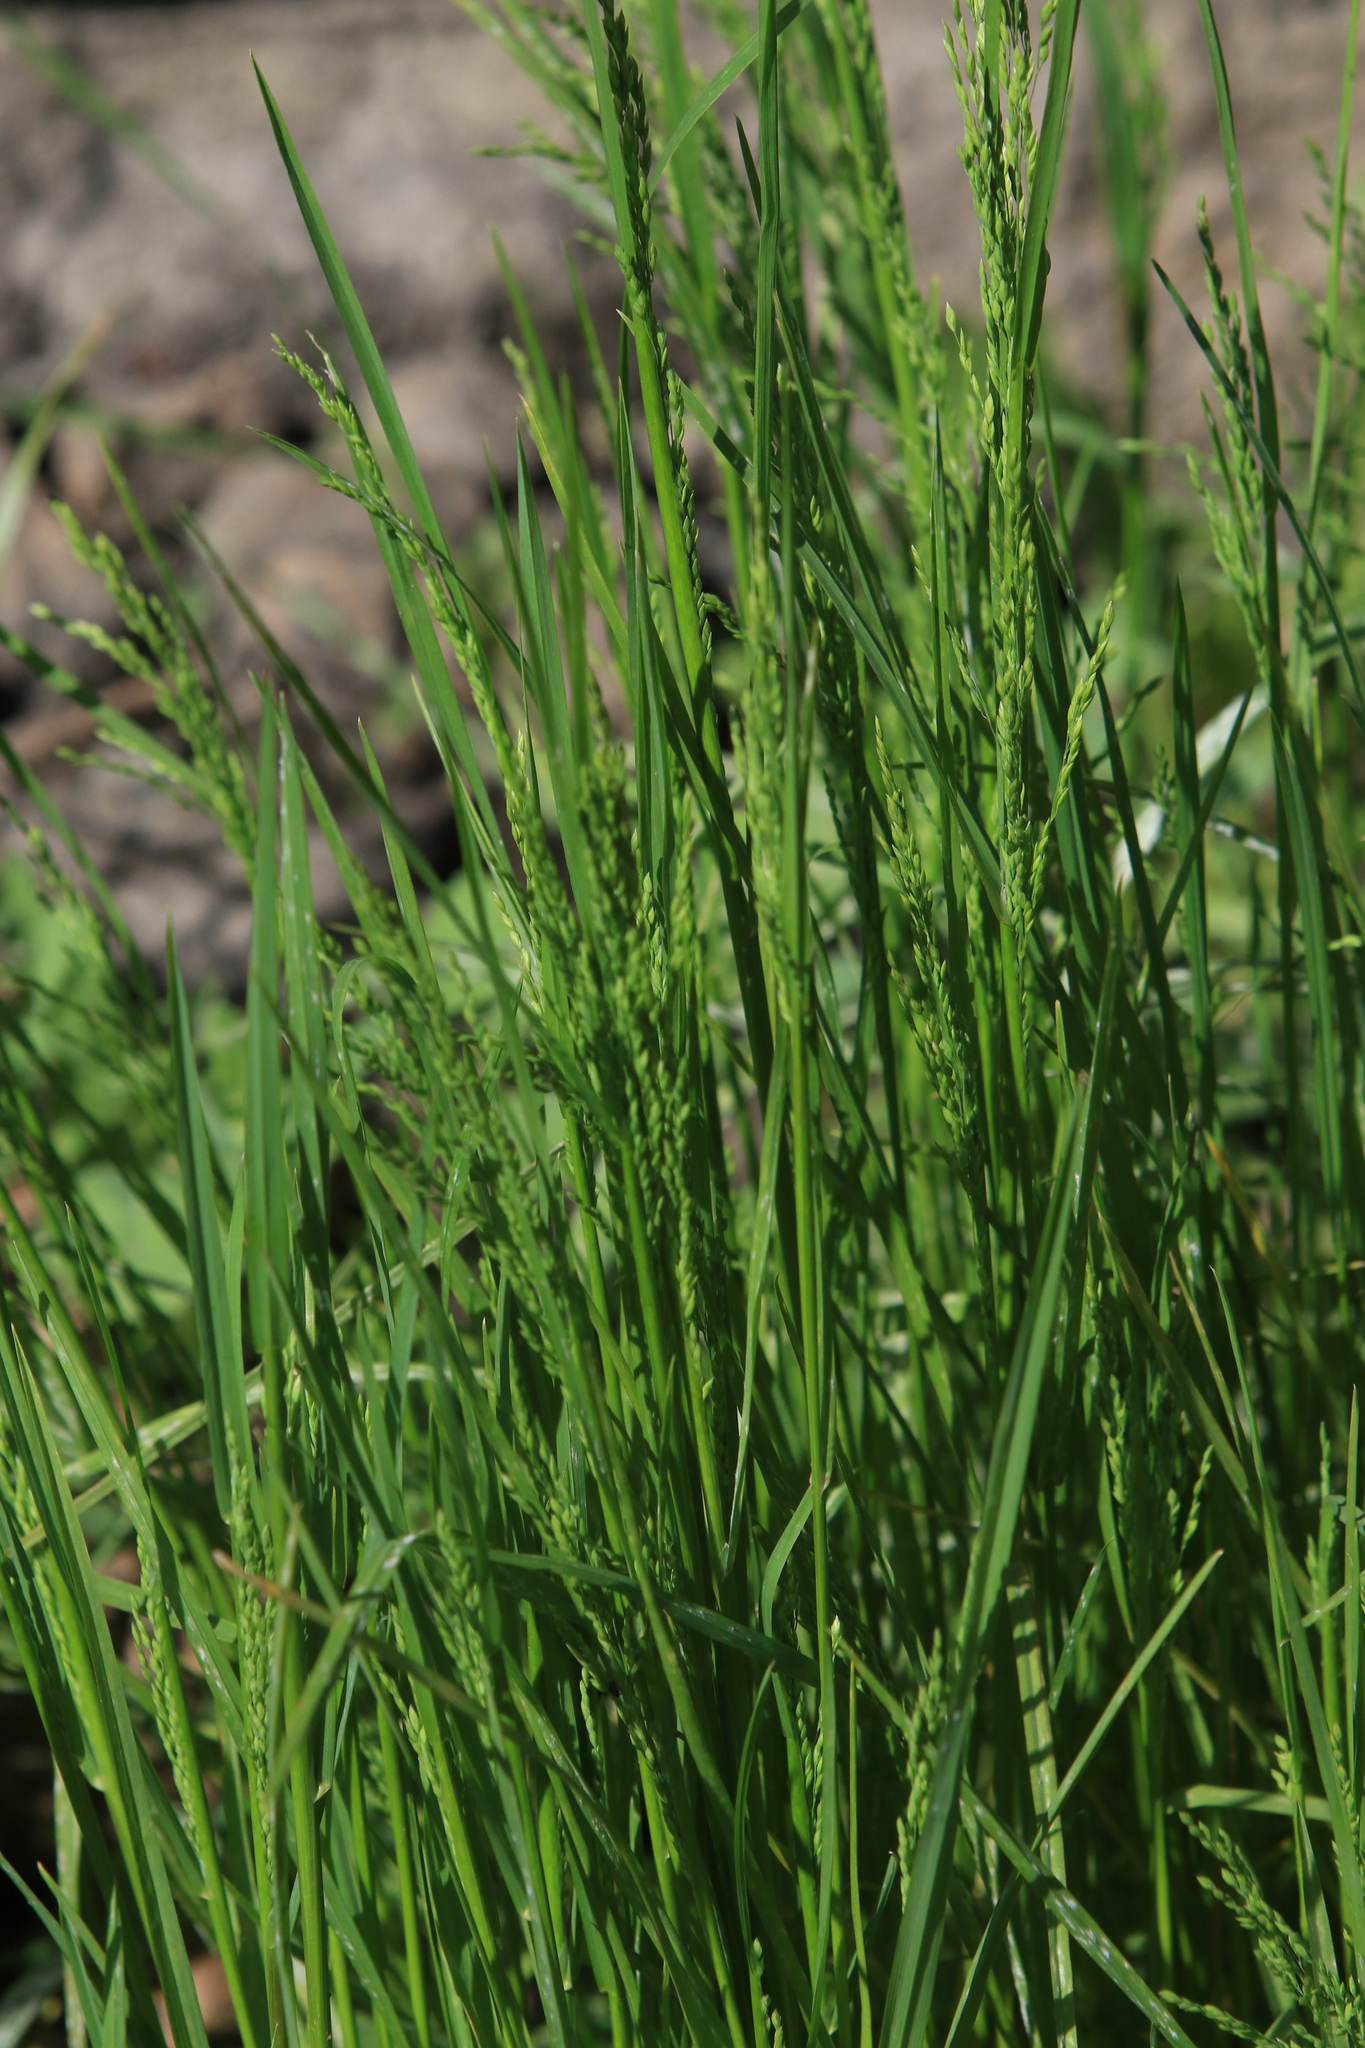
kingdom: Plantae
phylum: Tracheophyta
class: Liliopsida
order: Poales
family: Poaceae
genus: Poa
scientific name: Poa trivialis
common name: Rough bluegrass
